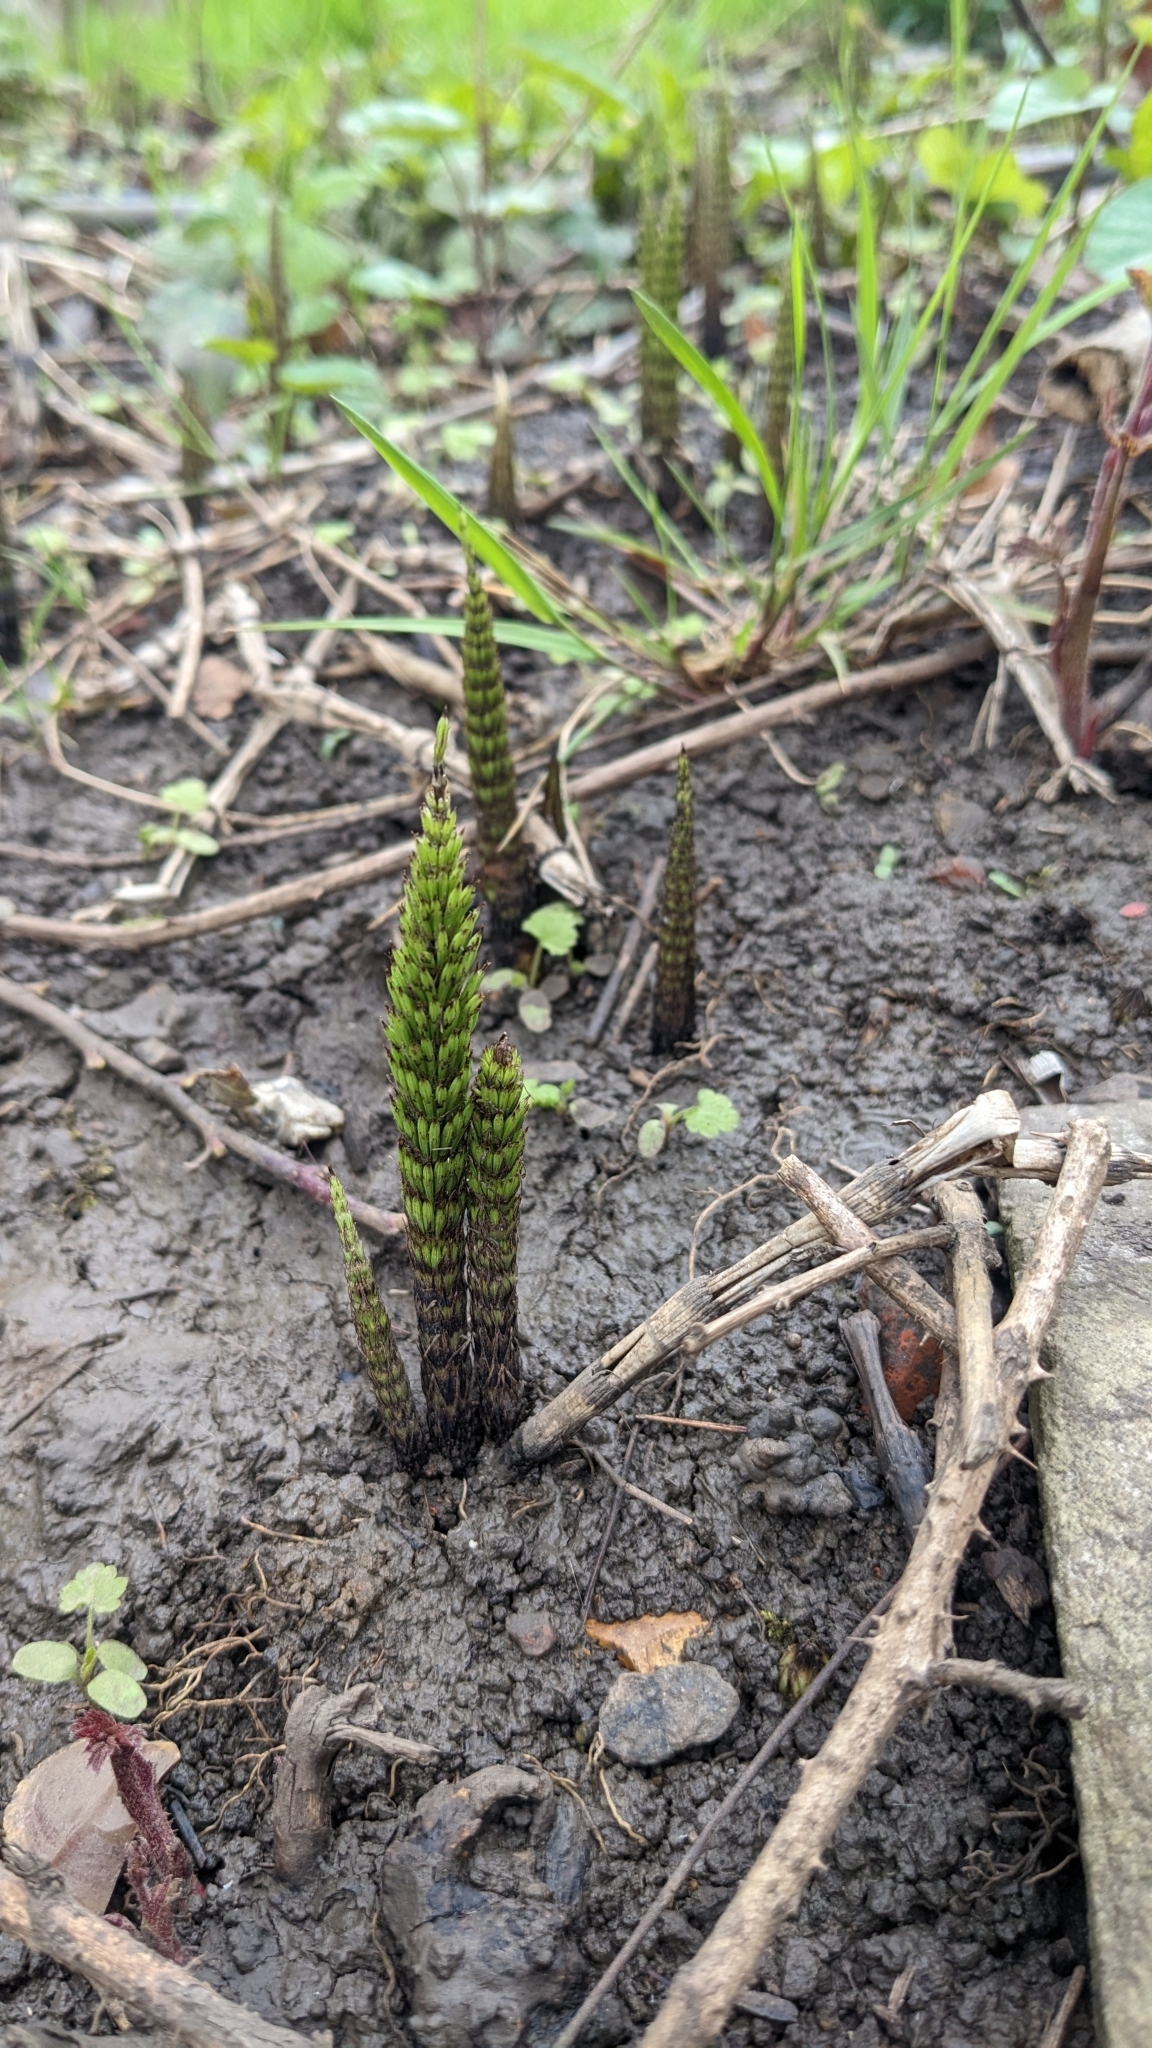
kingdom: Plantae
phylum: Tracheophyta
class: Polypodiopsida
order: Equisetales
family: Equisetaceae
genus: Equisetum
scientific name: Equisetum telmateia
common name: Great horsetail
